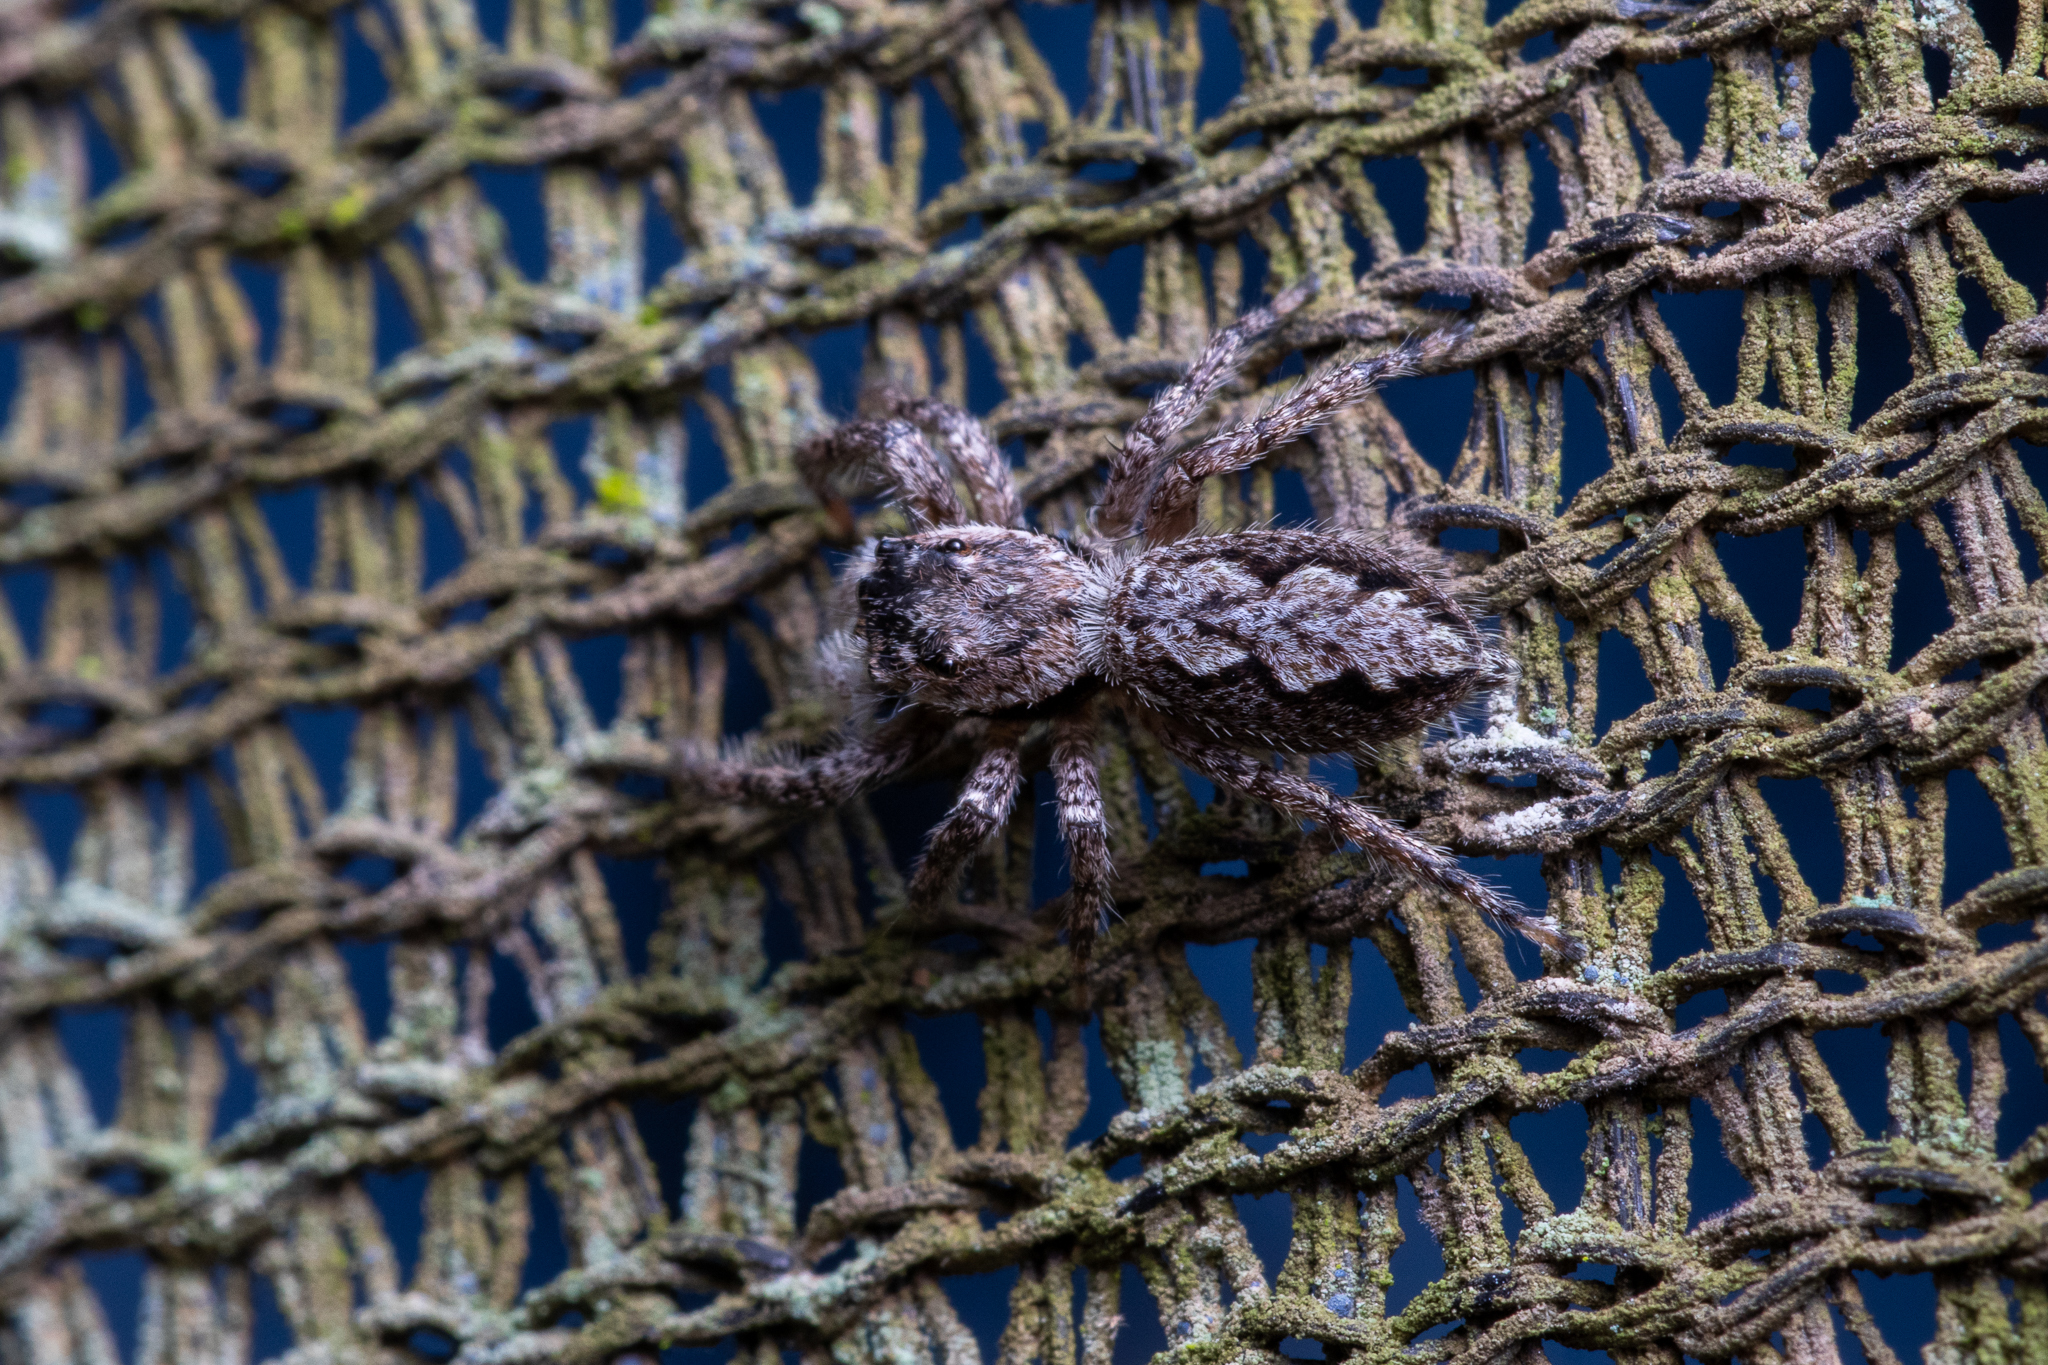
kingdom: Animalia
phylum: Arthropoda
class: Arachnida
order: Araneae
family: Salticidae
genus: Platycryptus
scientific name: Platycryptus undatus
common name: Tan jumping spider
